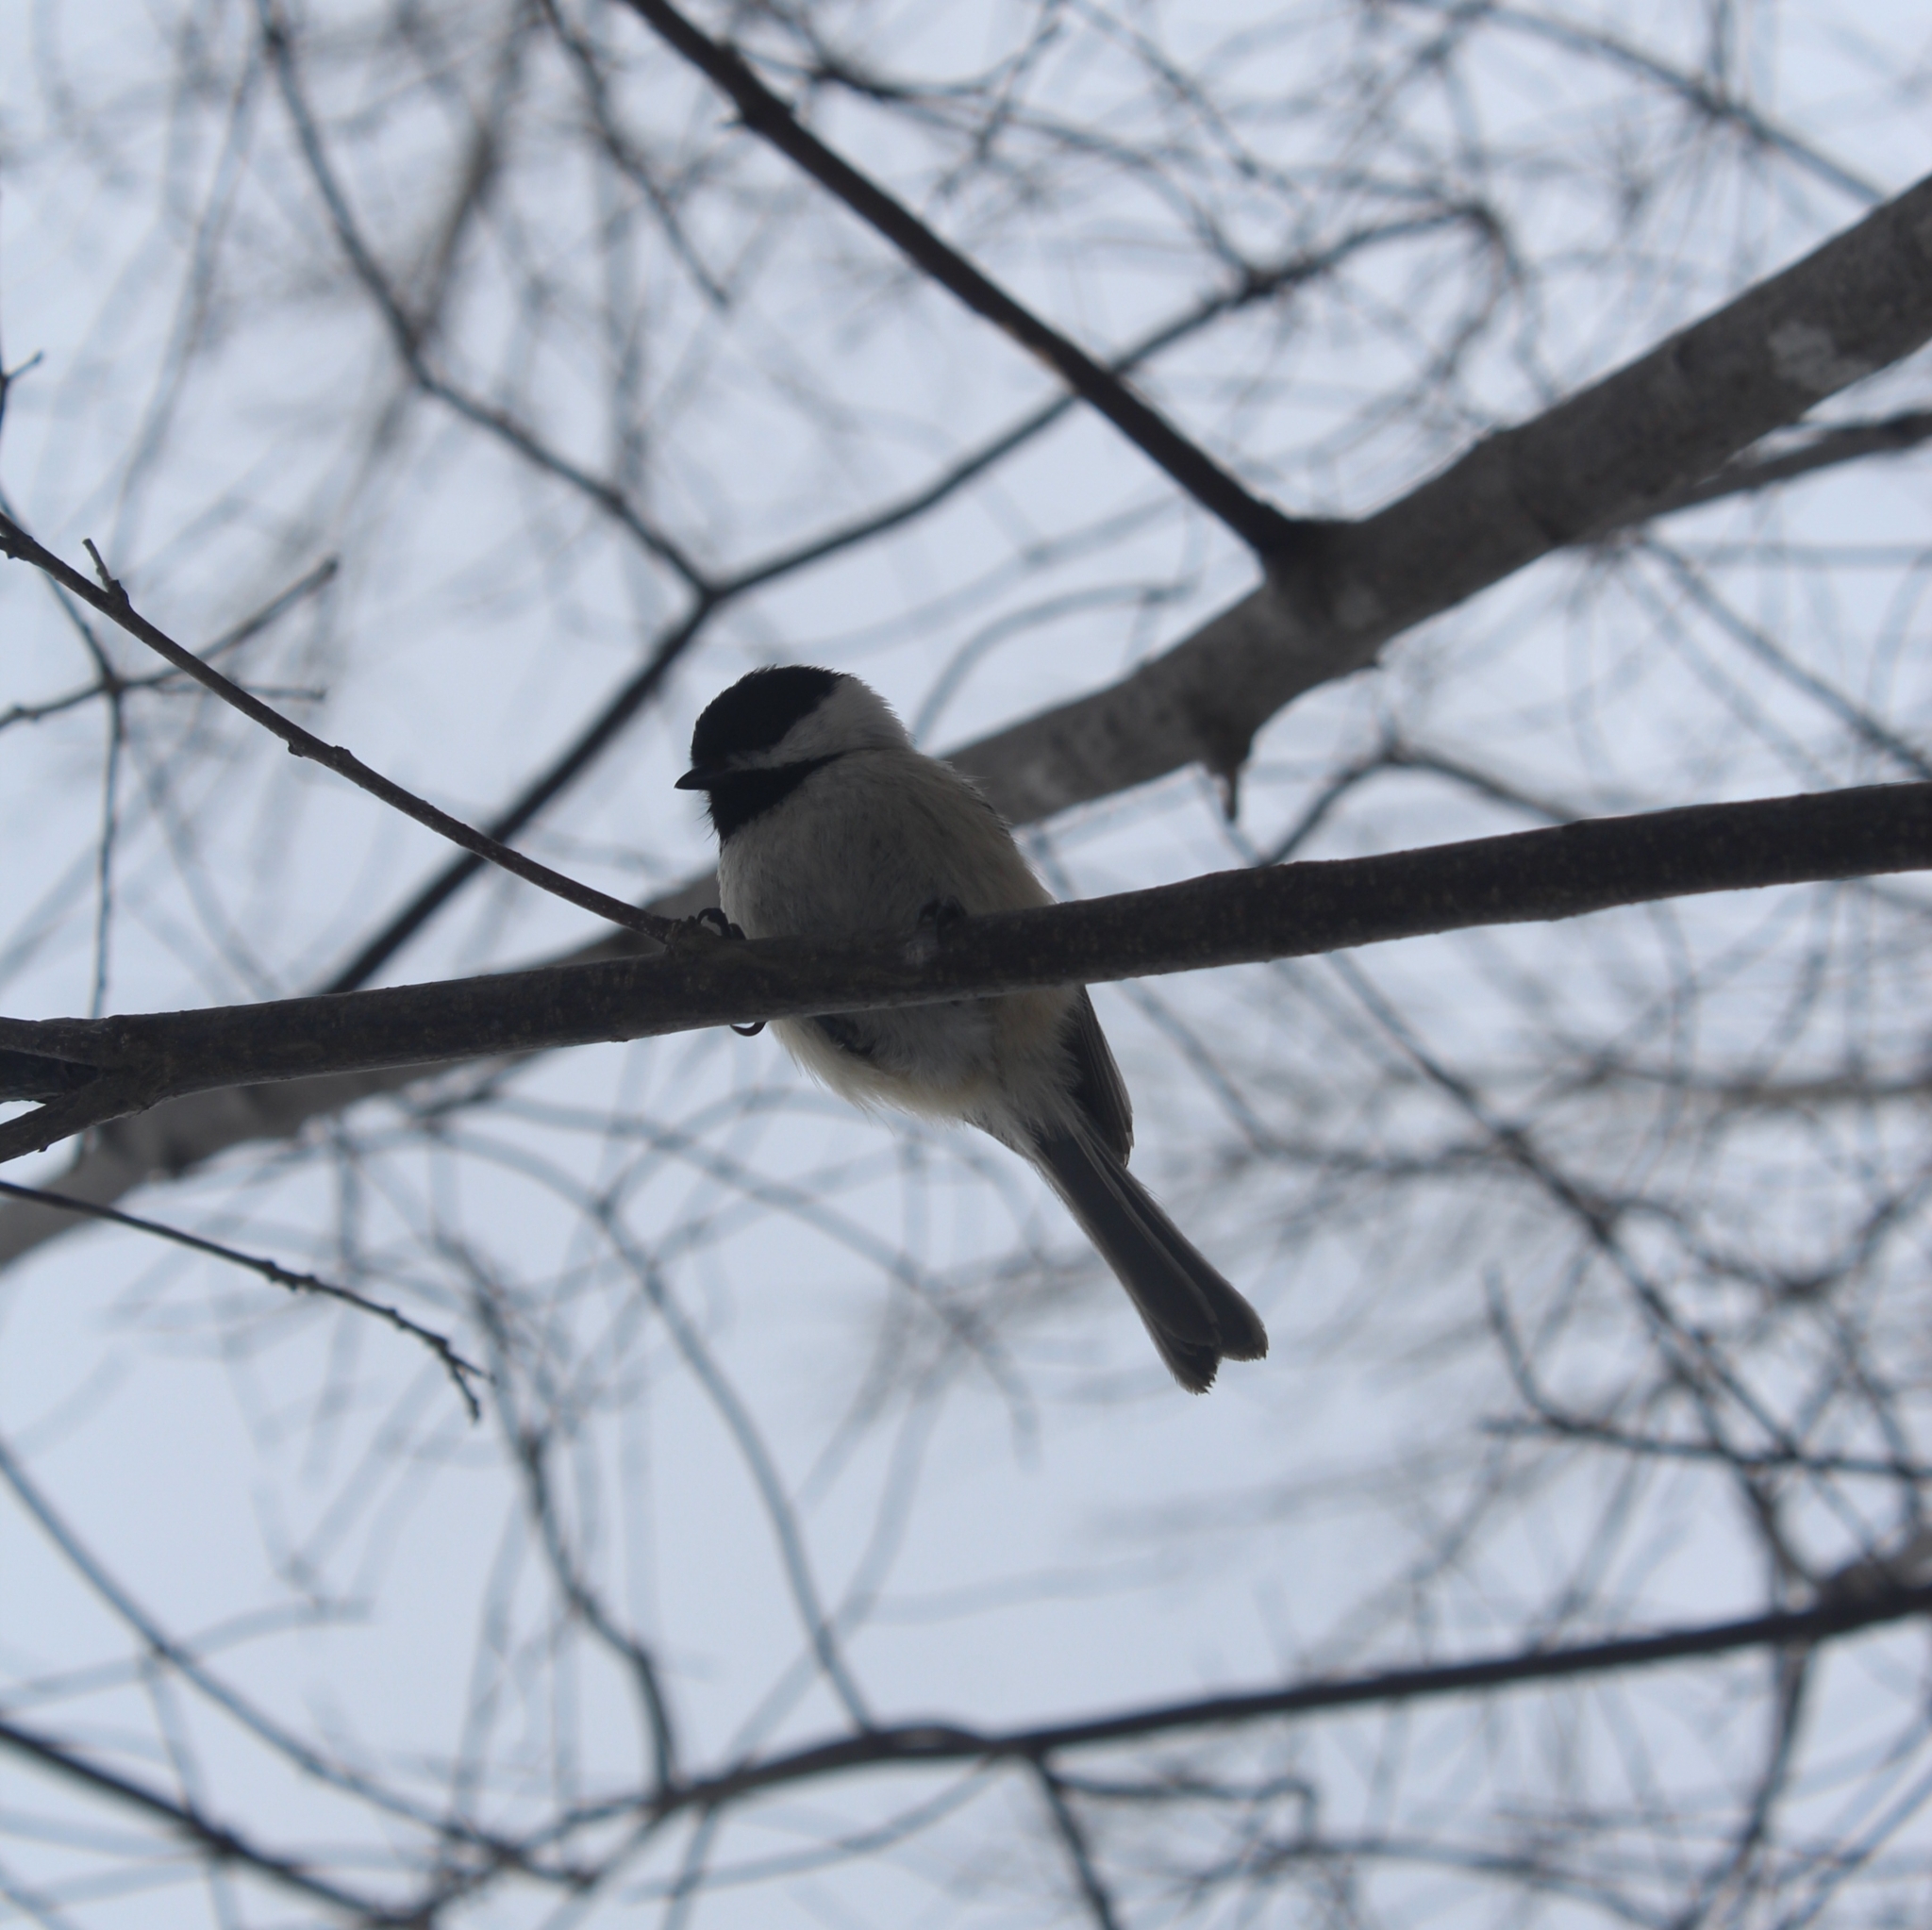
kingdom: Animalia
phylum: Chordata
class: Aves
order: Passeriformes
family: Paridae
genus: Poecile
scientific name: Poecile atricapillus
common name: Black-capped chickadee
